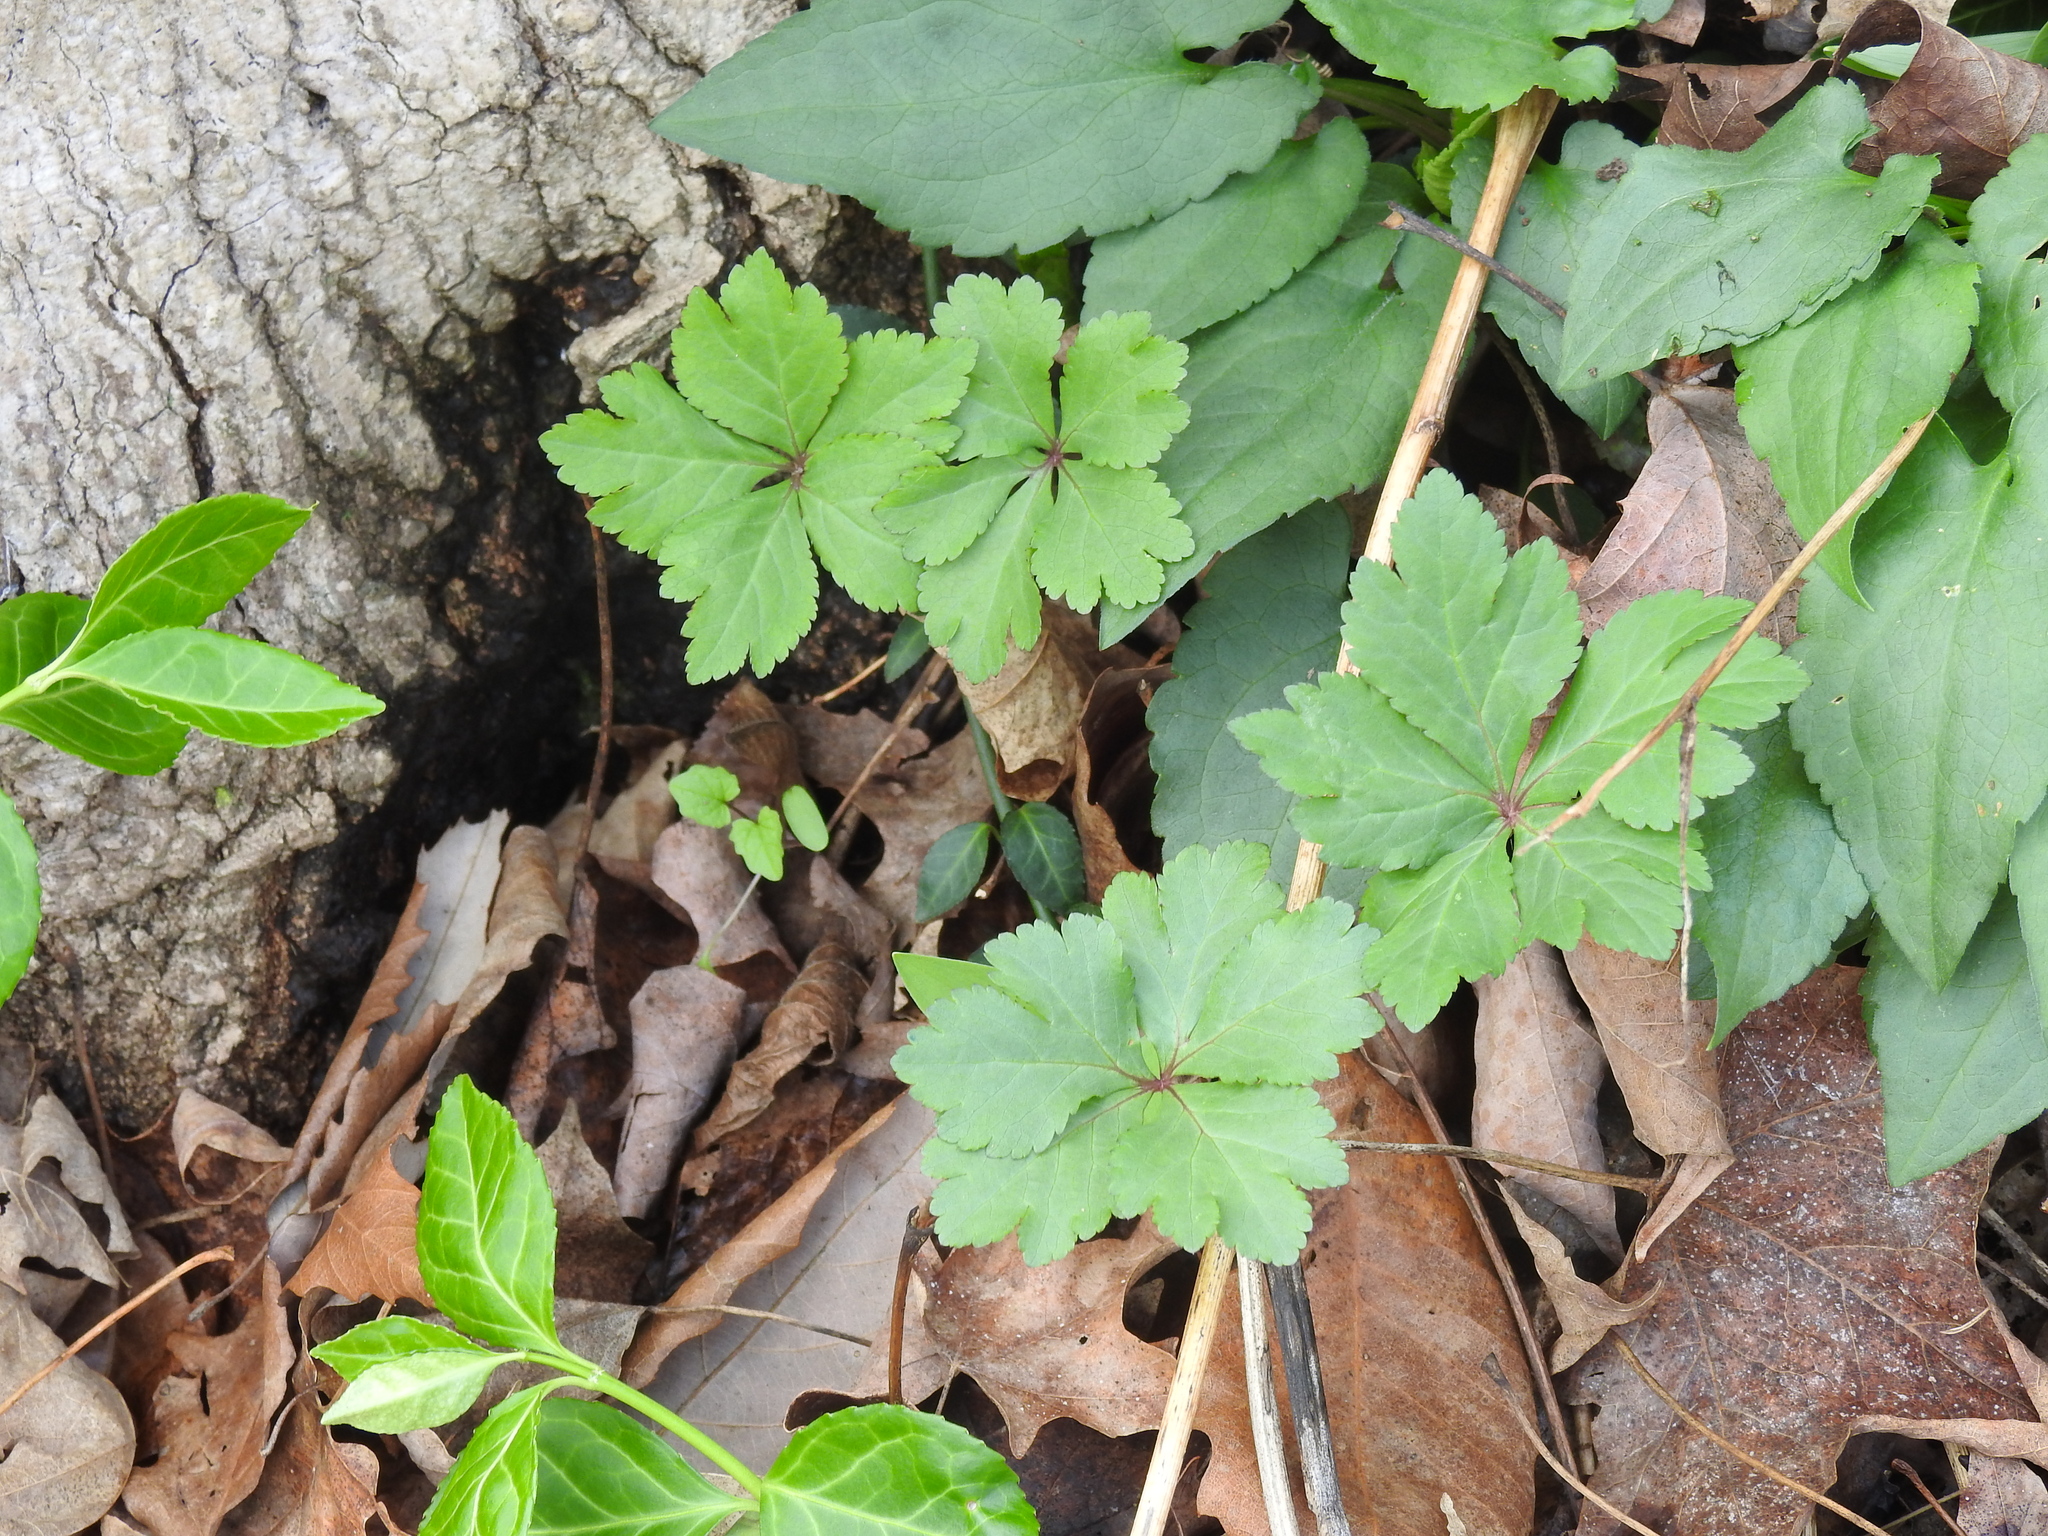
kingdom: Plantae
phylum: Tracheophyta
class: Magnoliopsida
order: Apiales
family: Apiaceae
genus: Sanicula
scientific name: Sanicula odorata
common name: Cluster sanicle
